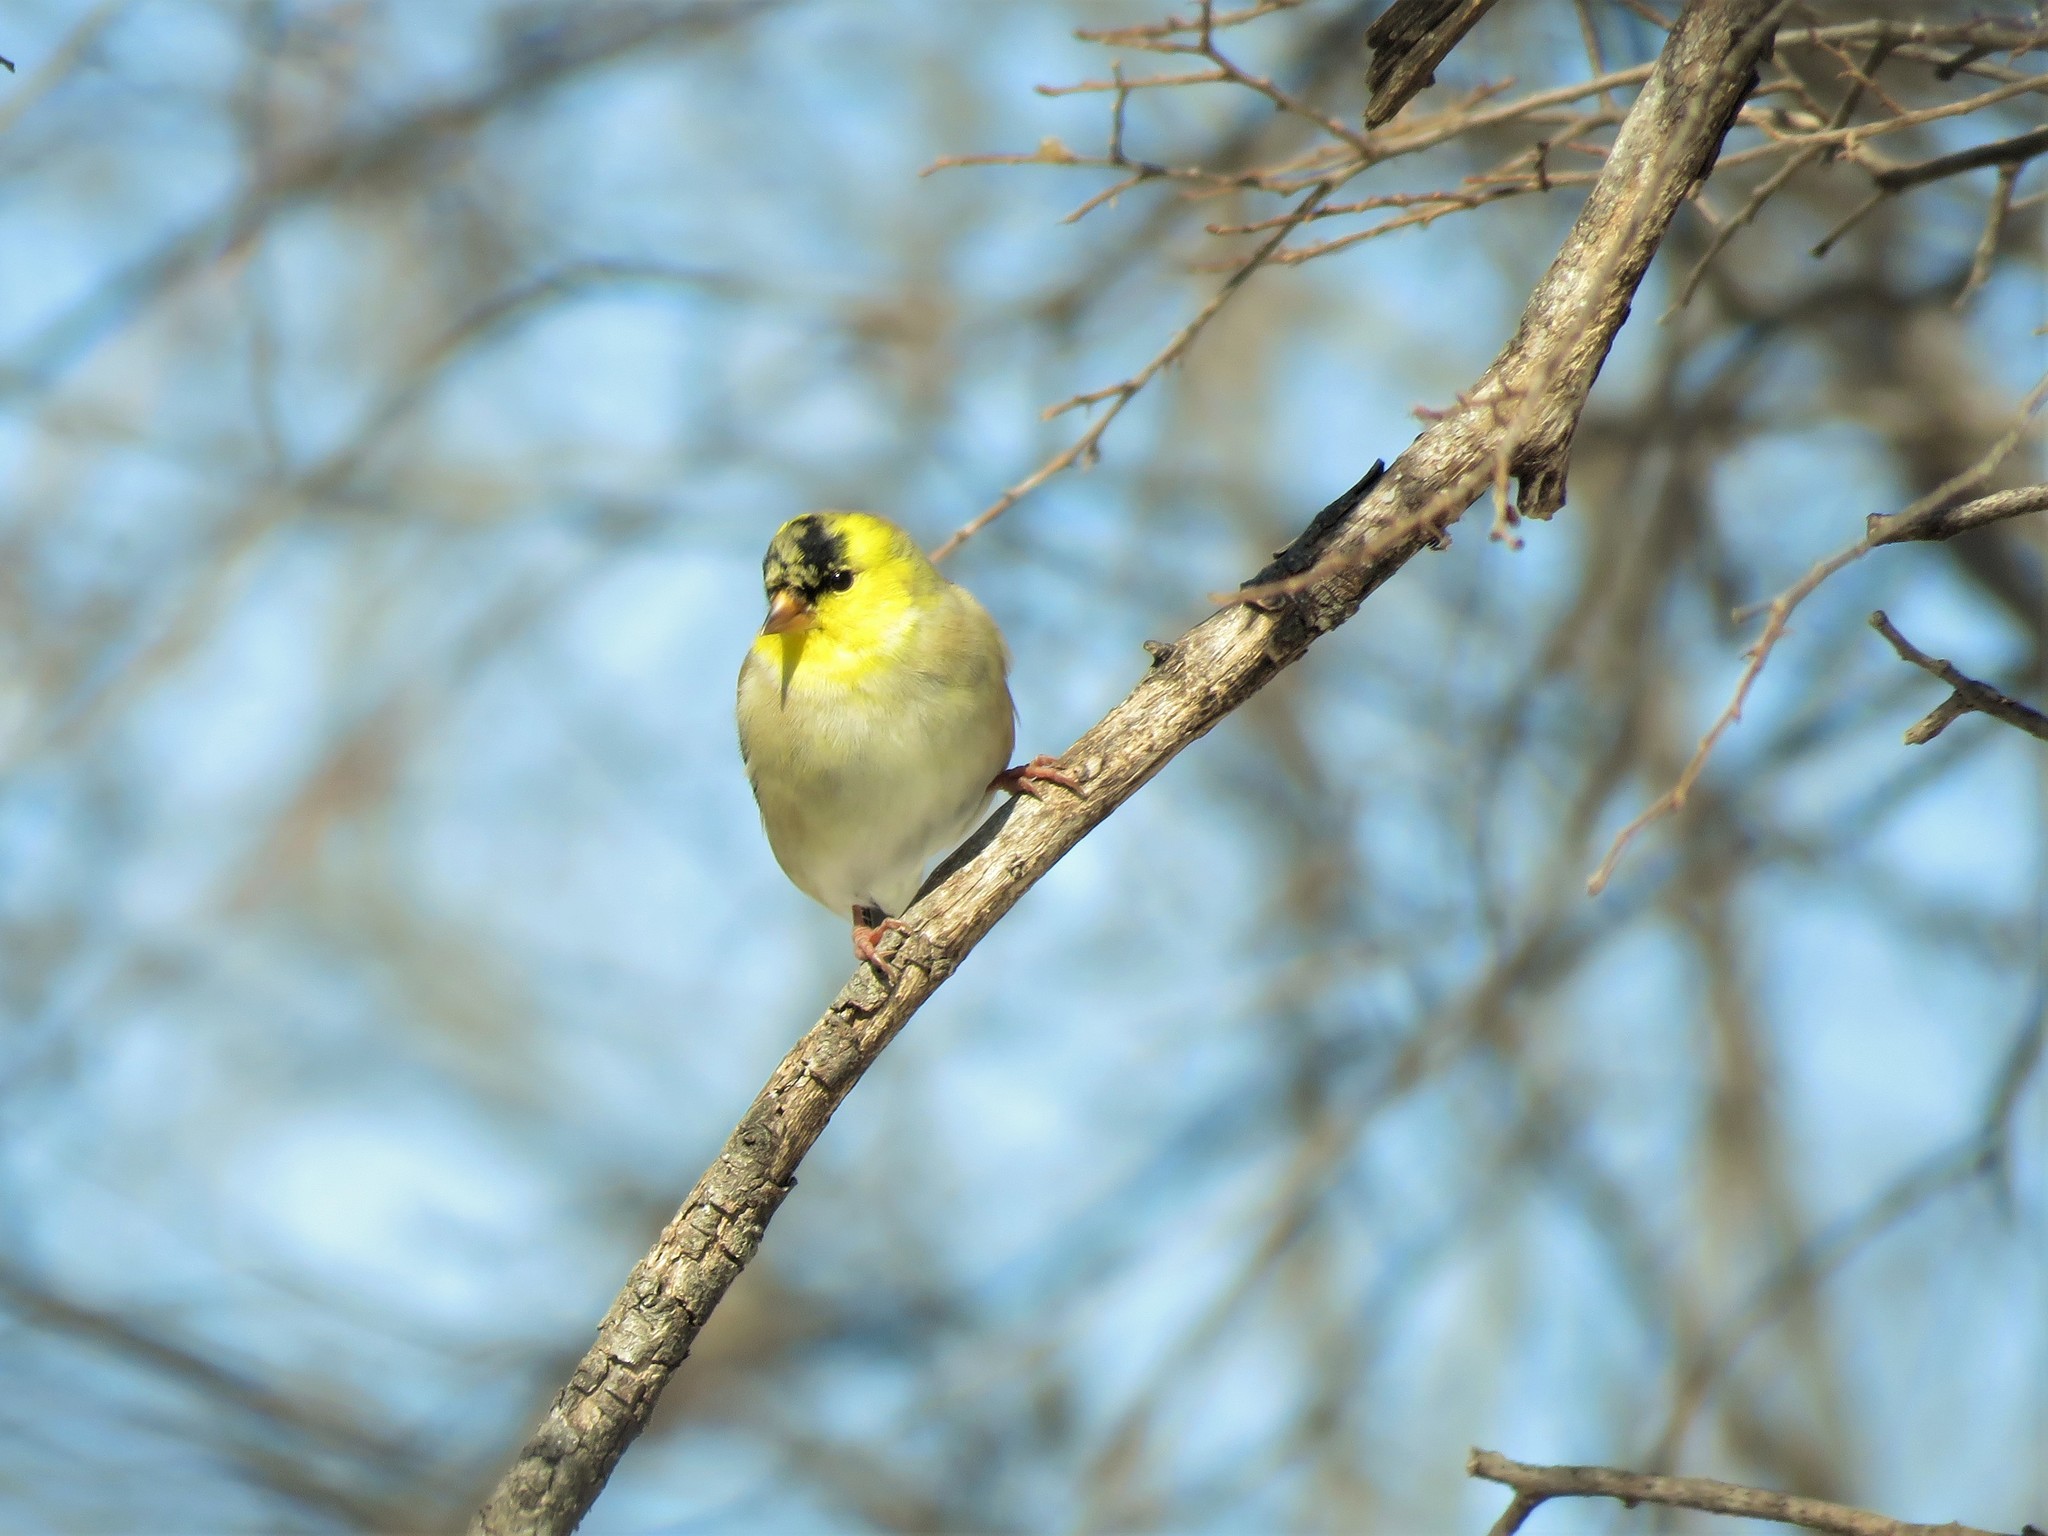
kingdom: Animalia
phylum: Chordata
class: Aves
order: Passeriformes
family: Fringillidae
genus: Spinus
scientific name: Spinus tristis
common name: American goldfinch
